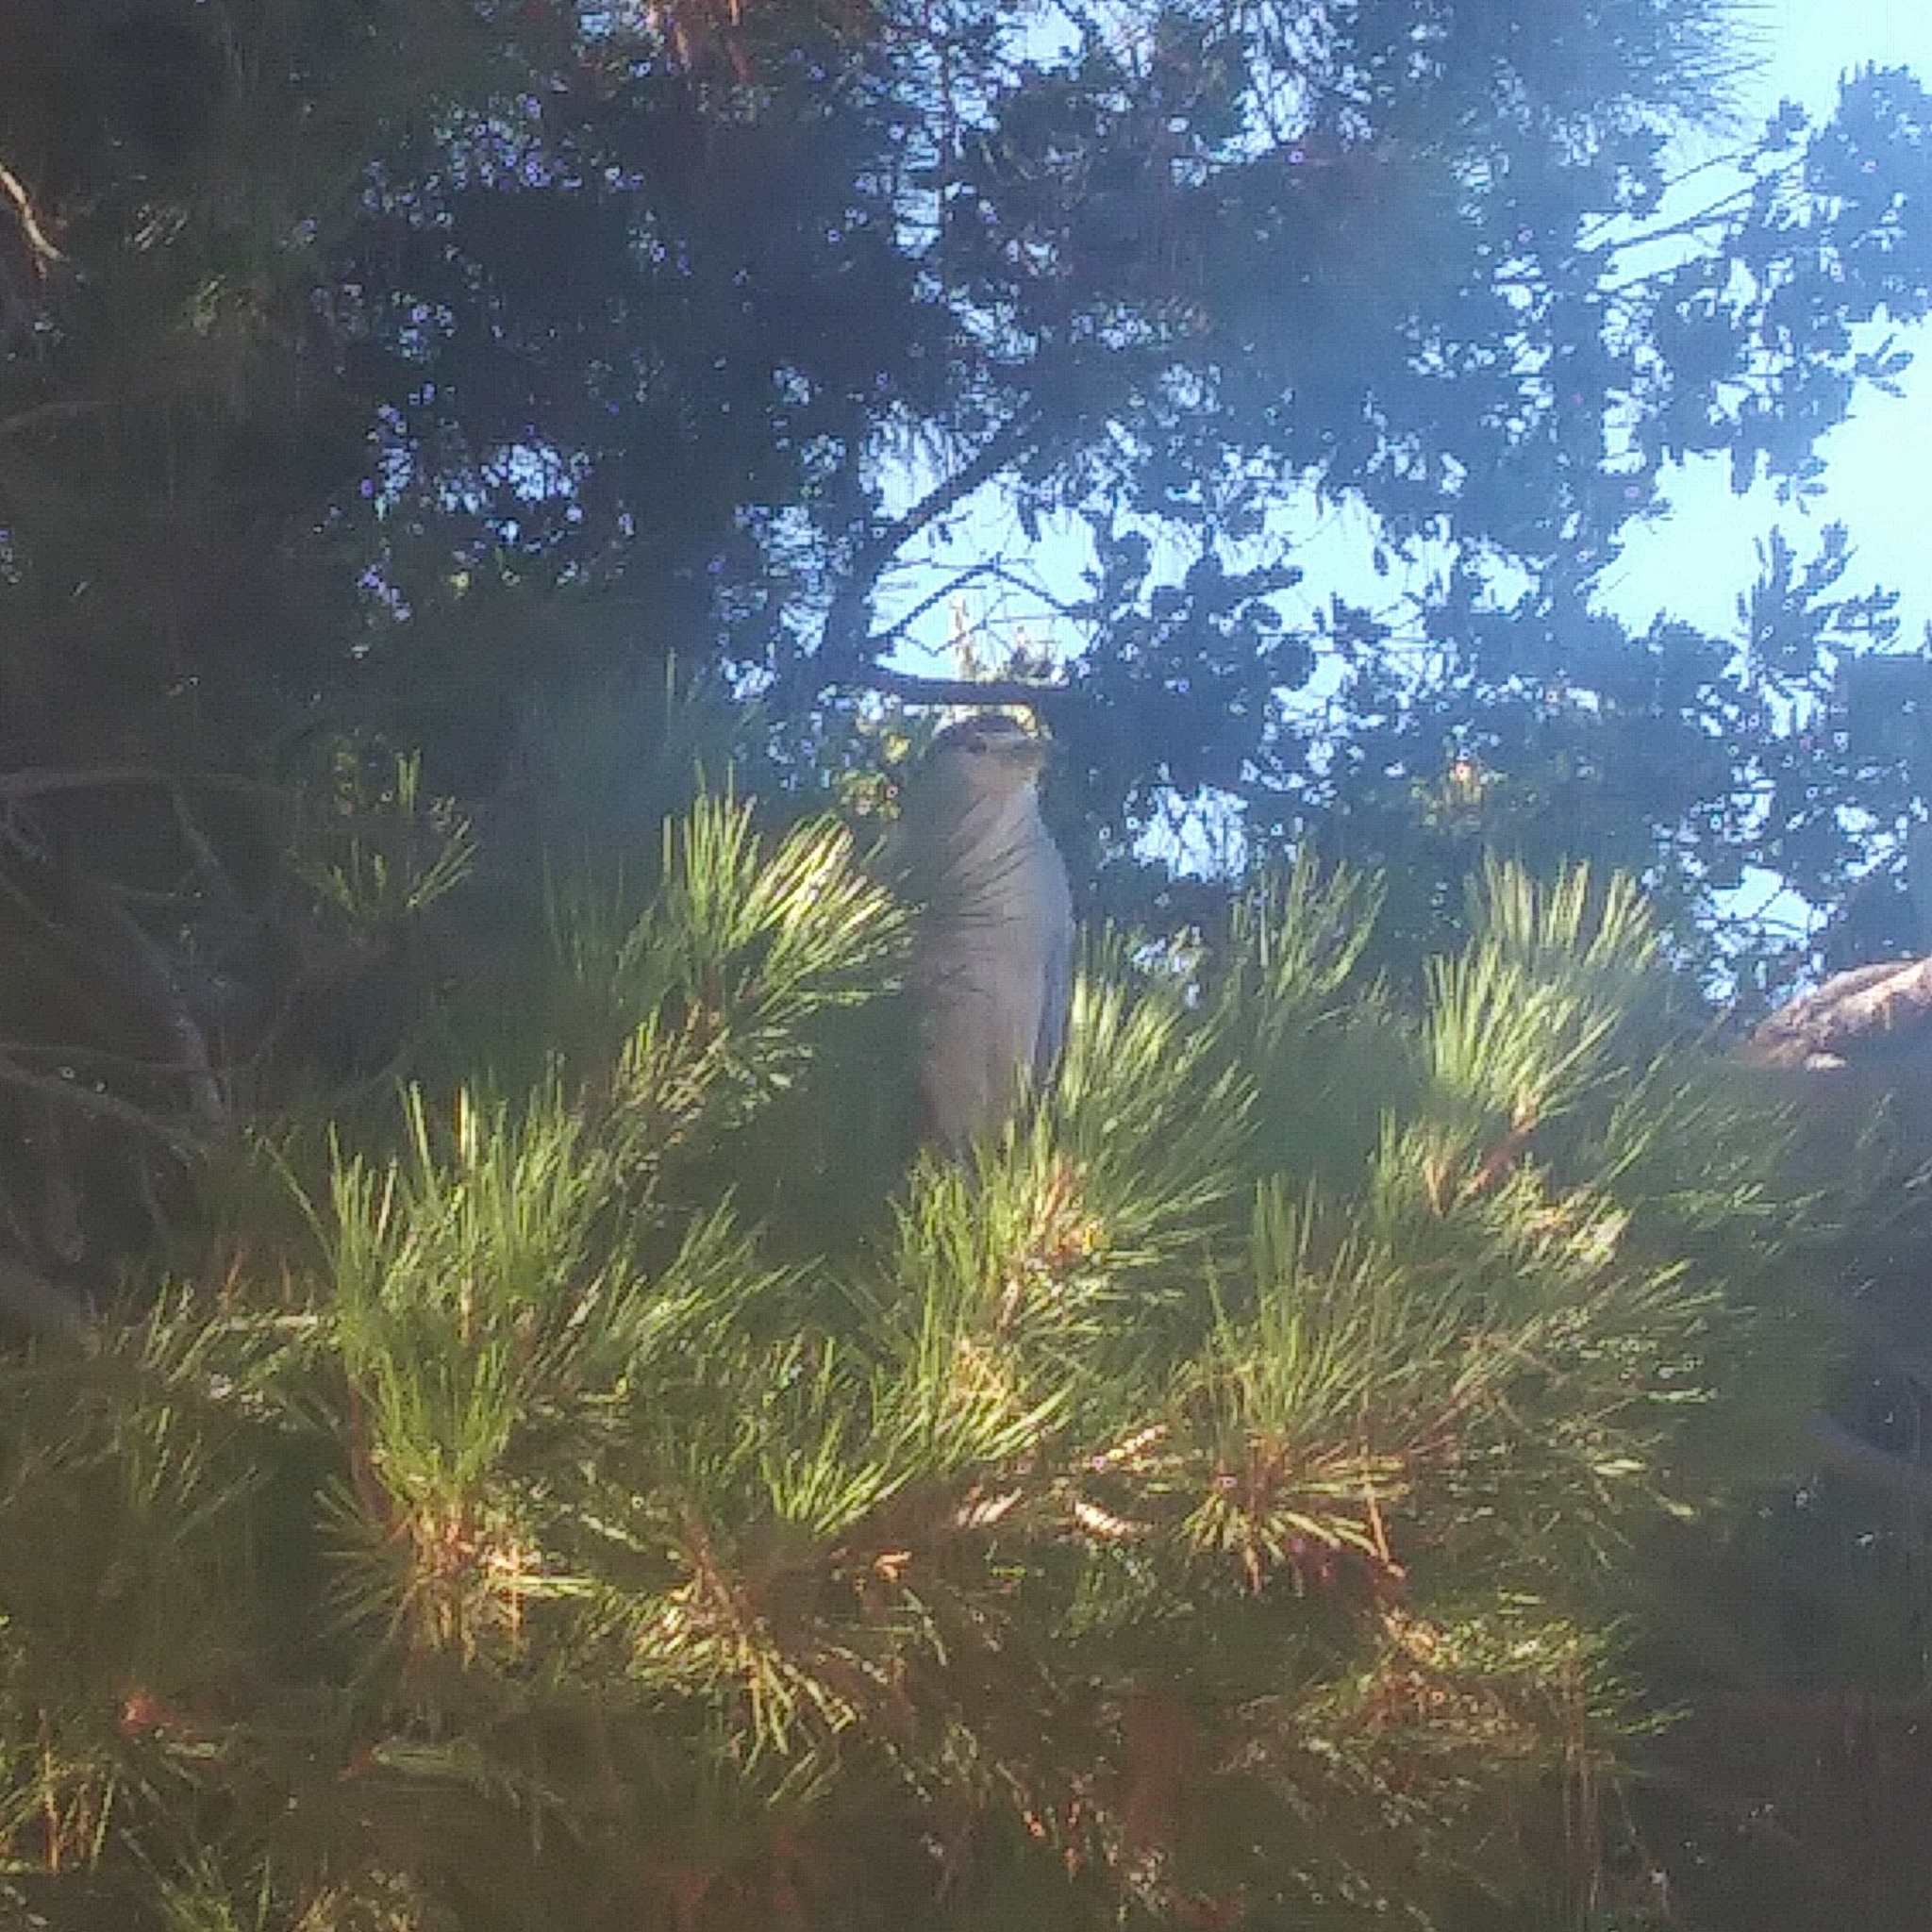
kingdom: Animalia
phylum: Chordata
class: Aves
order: Pelecaniformes
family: Ardeidae
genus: Nycticorax
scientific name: Nycticorax nycticorax
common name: Black-crowned night heron
